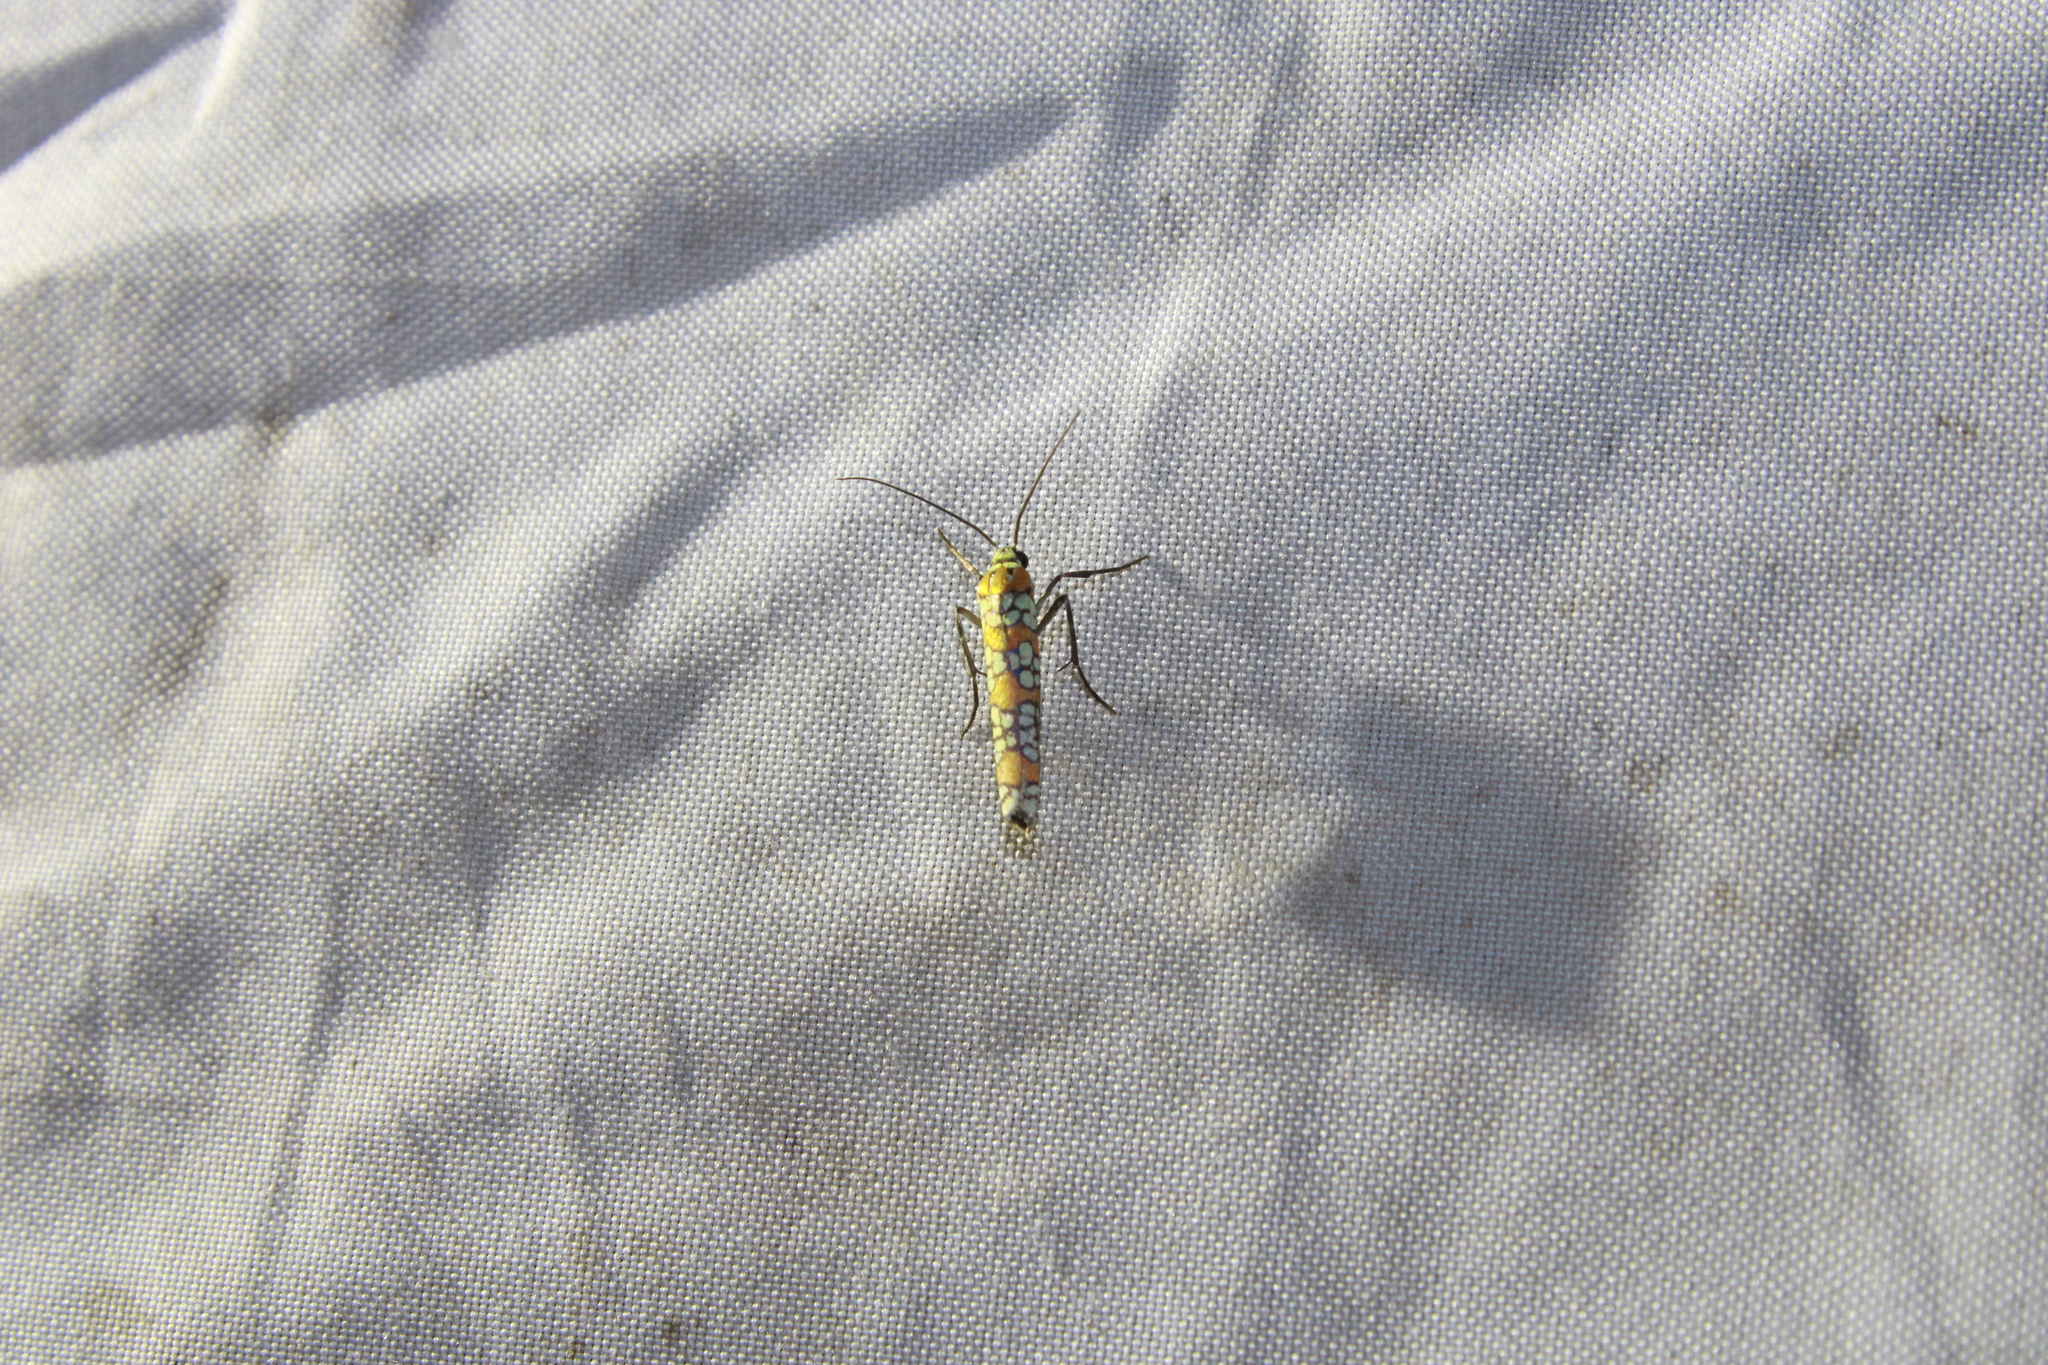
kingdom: Animalia
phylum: Arthropoda
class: Insecta
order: Lepidoptera
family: Attevidae
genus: Atteva
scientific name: Atteva punctella
